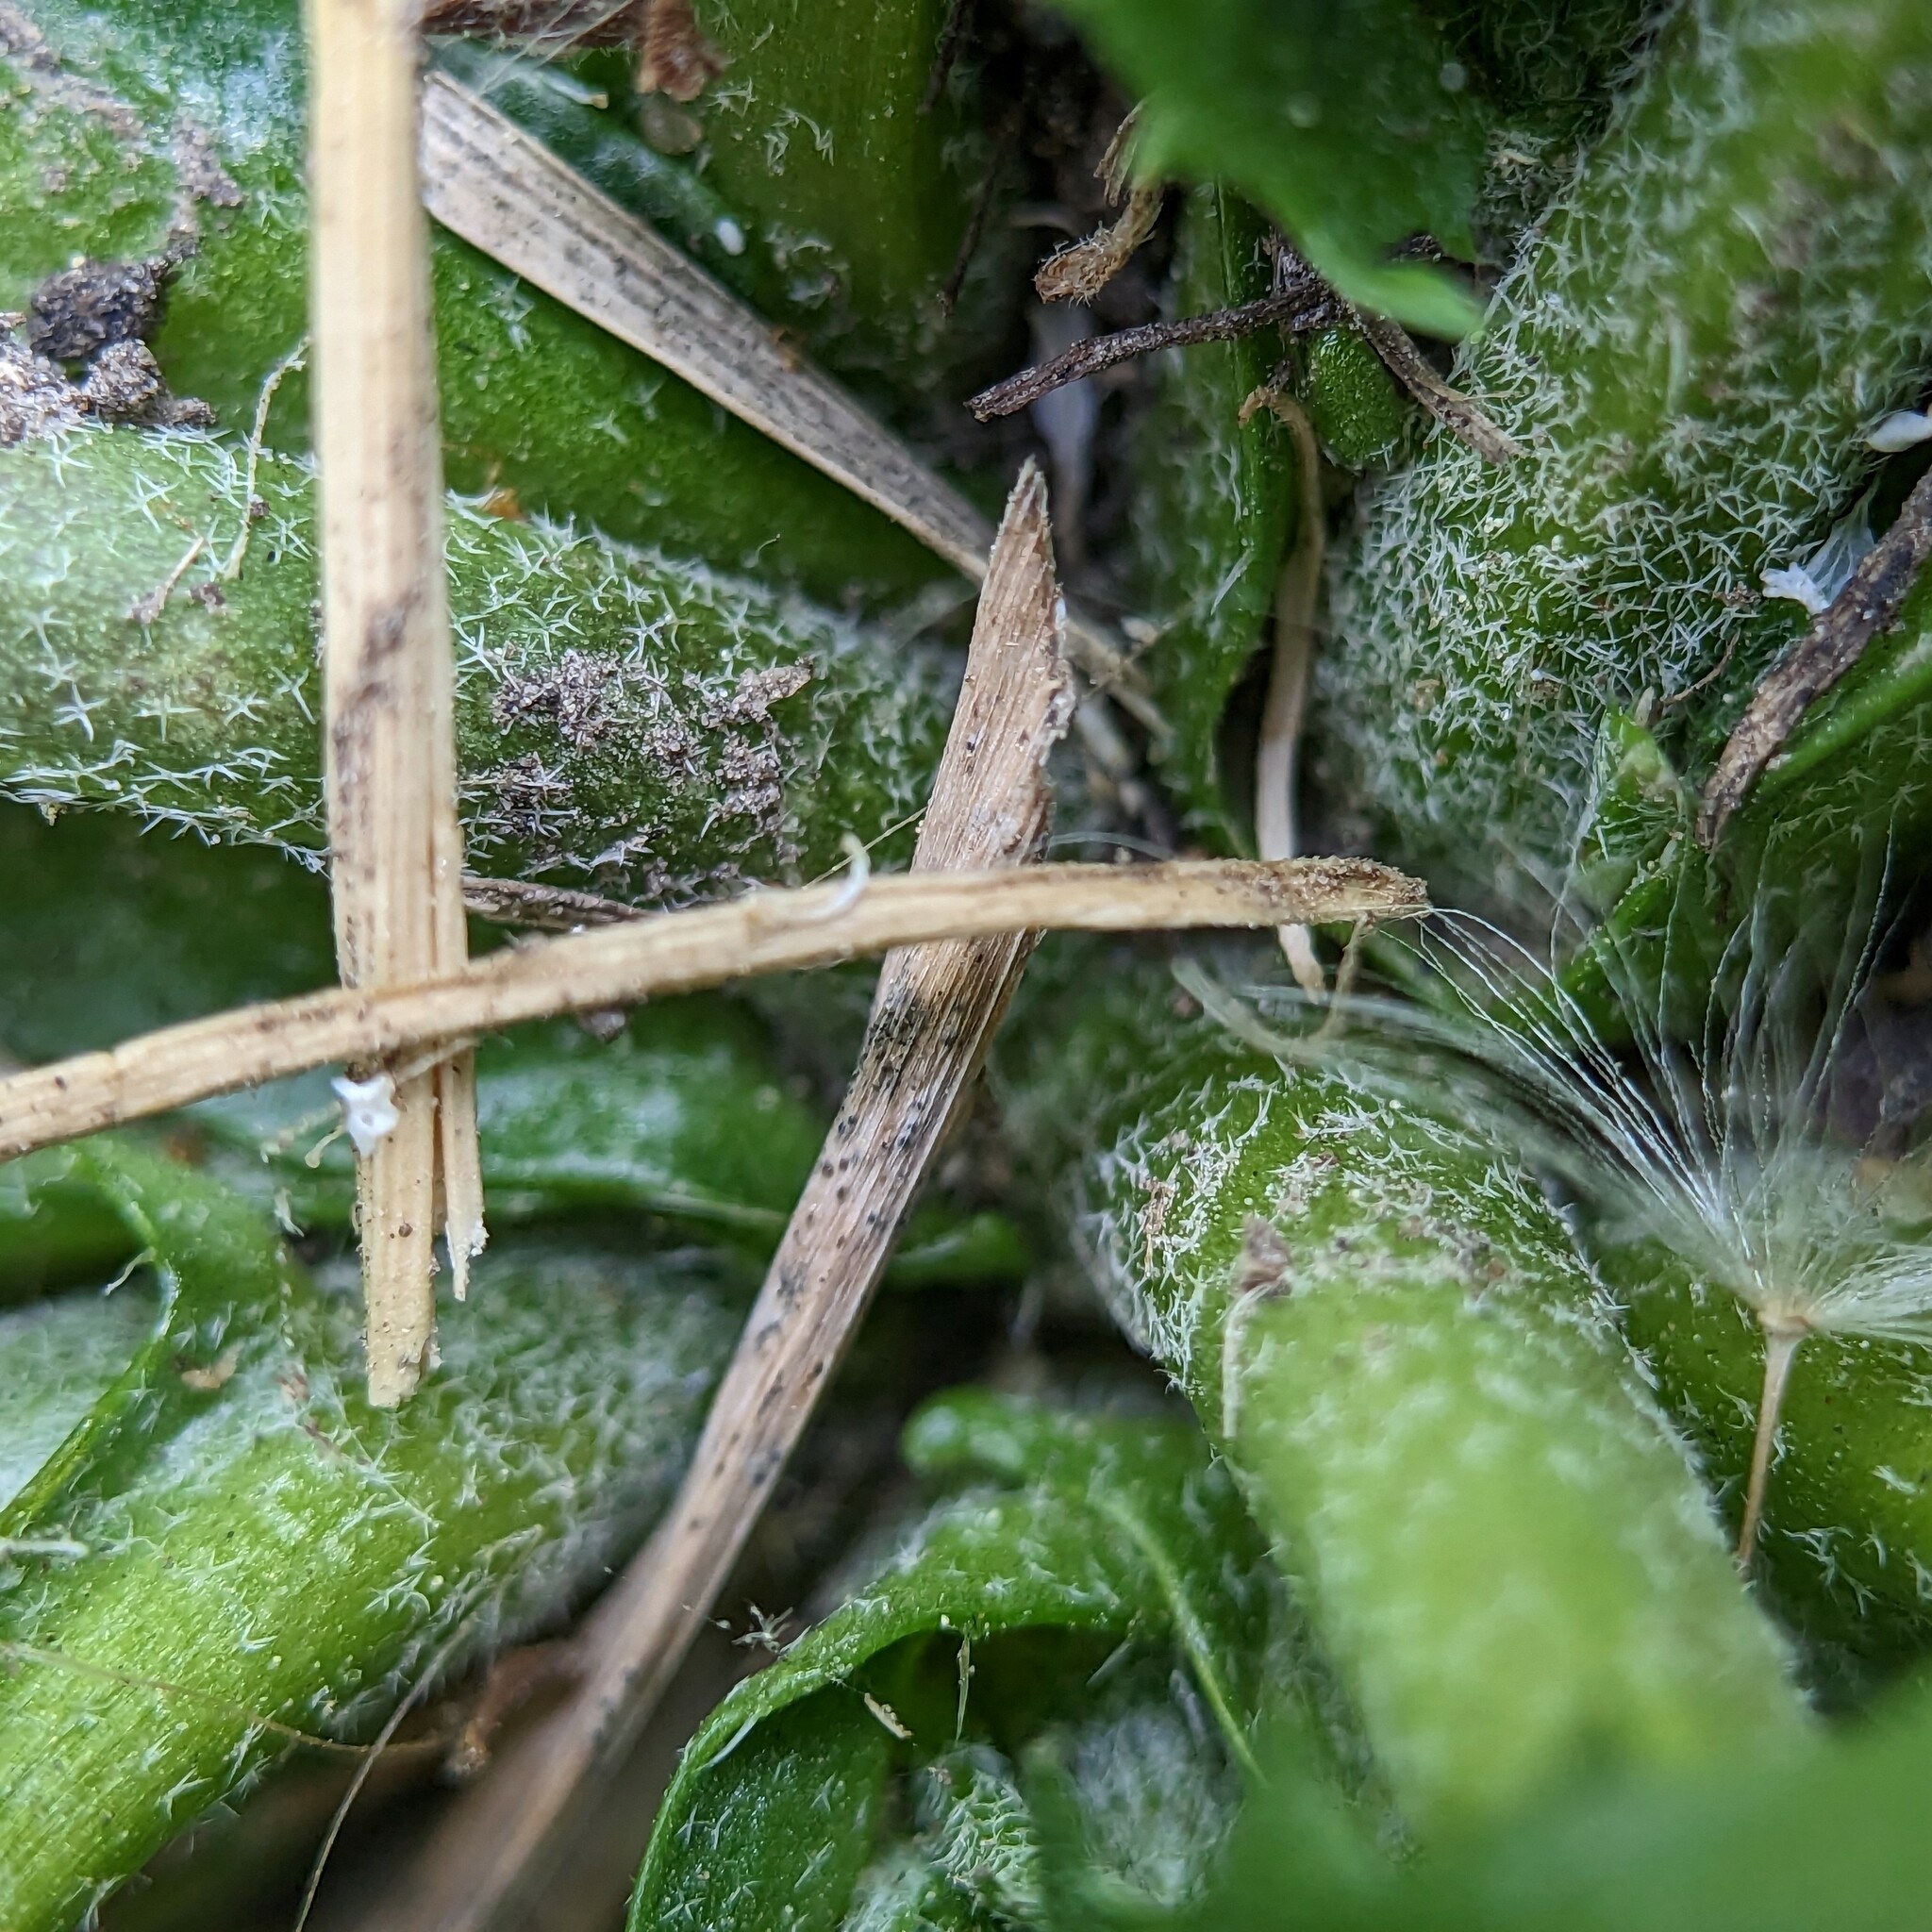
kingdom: Plantae
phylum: Tracheophyta
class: Magnoliopsida
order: Brassicales
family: Brassicaceae
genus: Capsella
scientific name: Capsella bursa-pastoris
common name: Shepherd's purse
